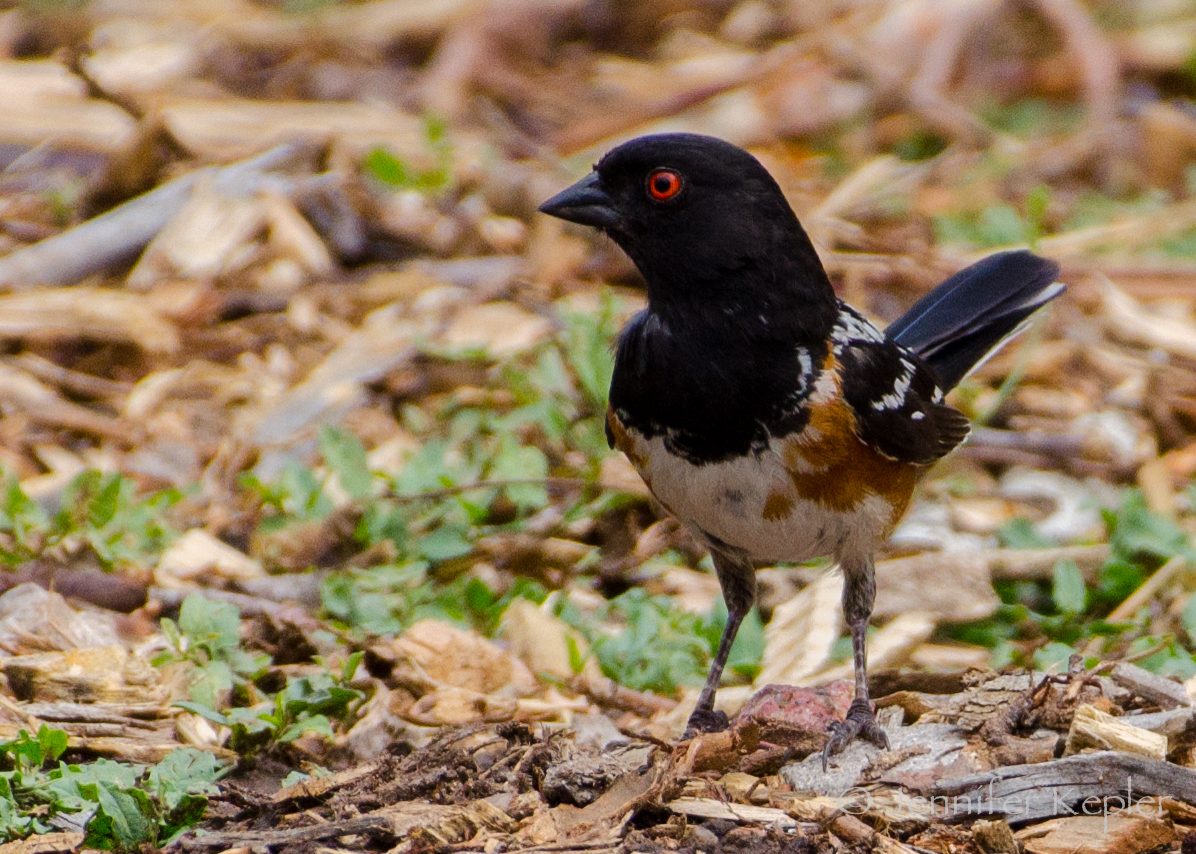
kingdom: Animalia
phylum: Chordata
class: Aves
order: Passeriformes
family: Passerellidae
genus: Pipilo
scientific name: Pipilo maculatus
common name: Spotted towhee
